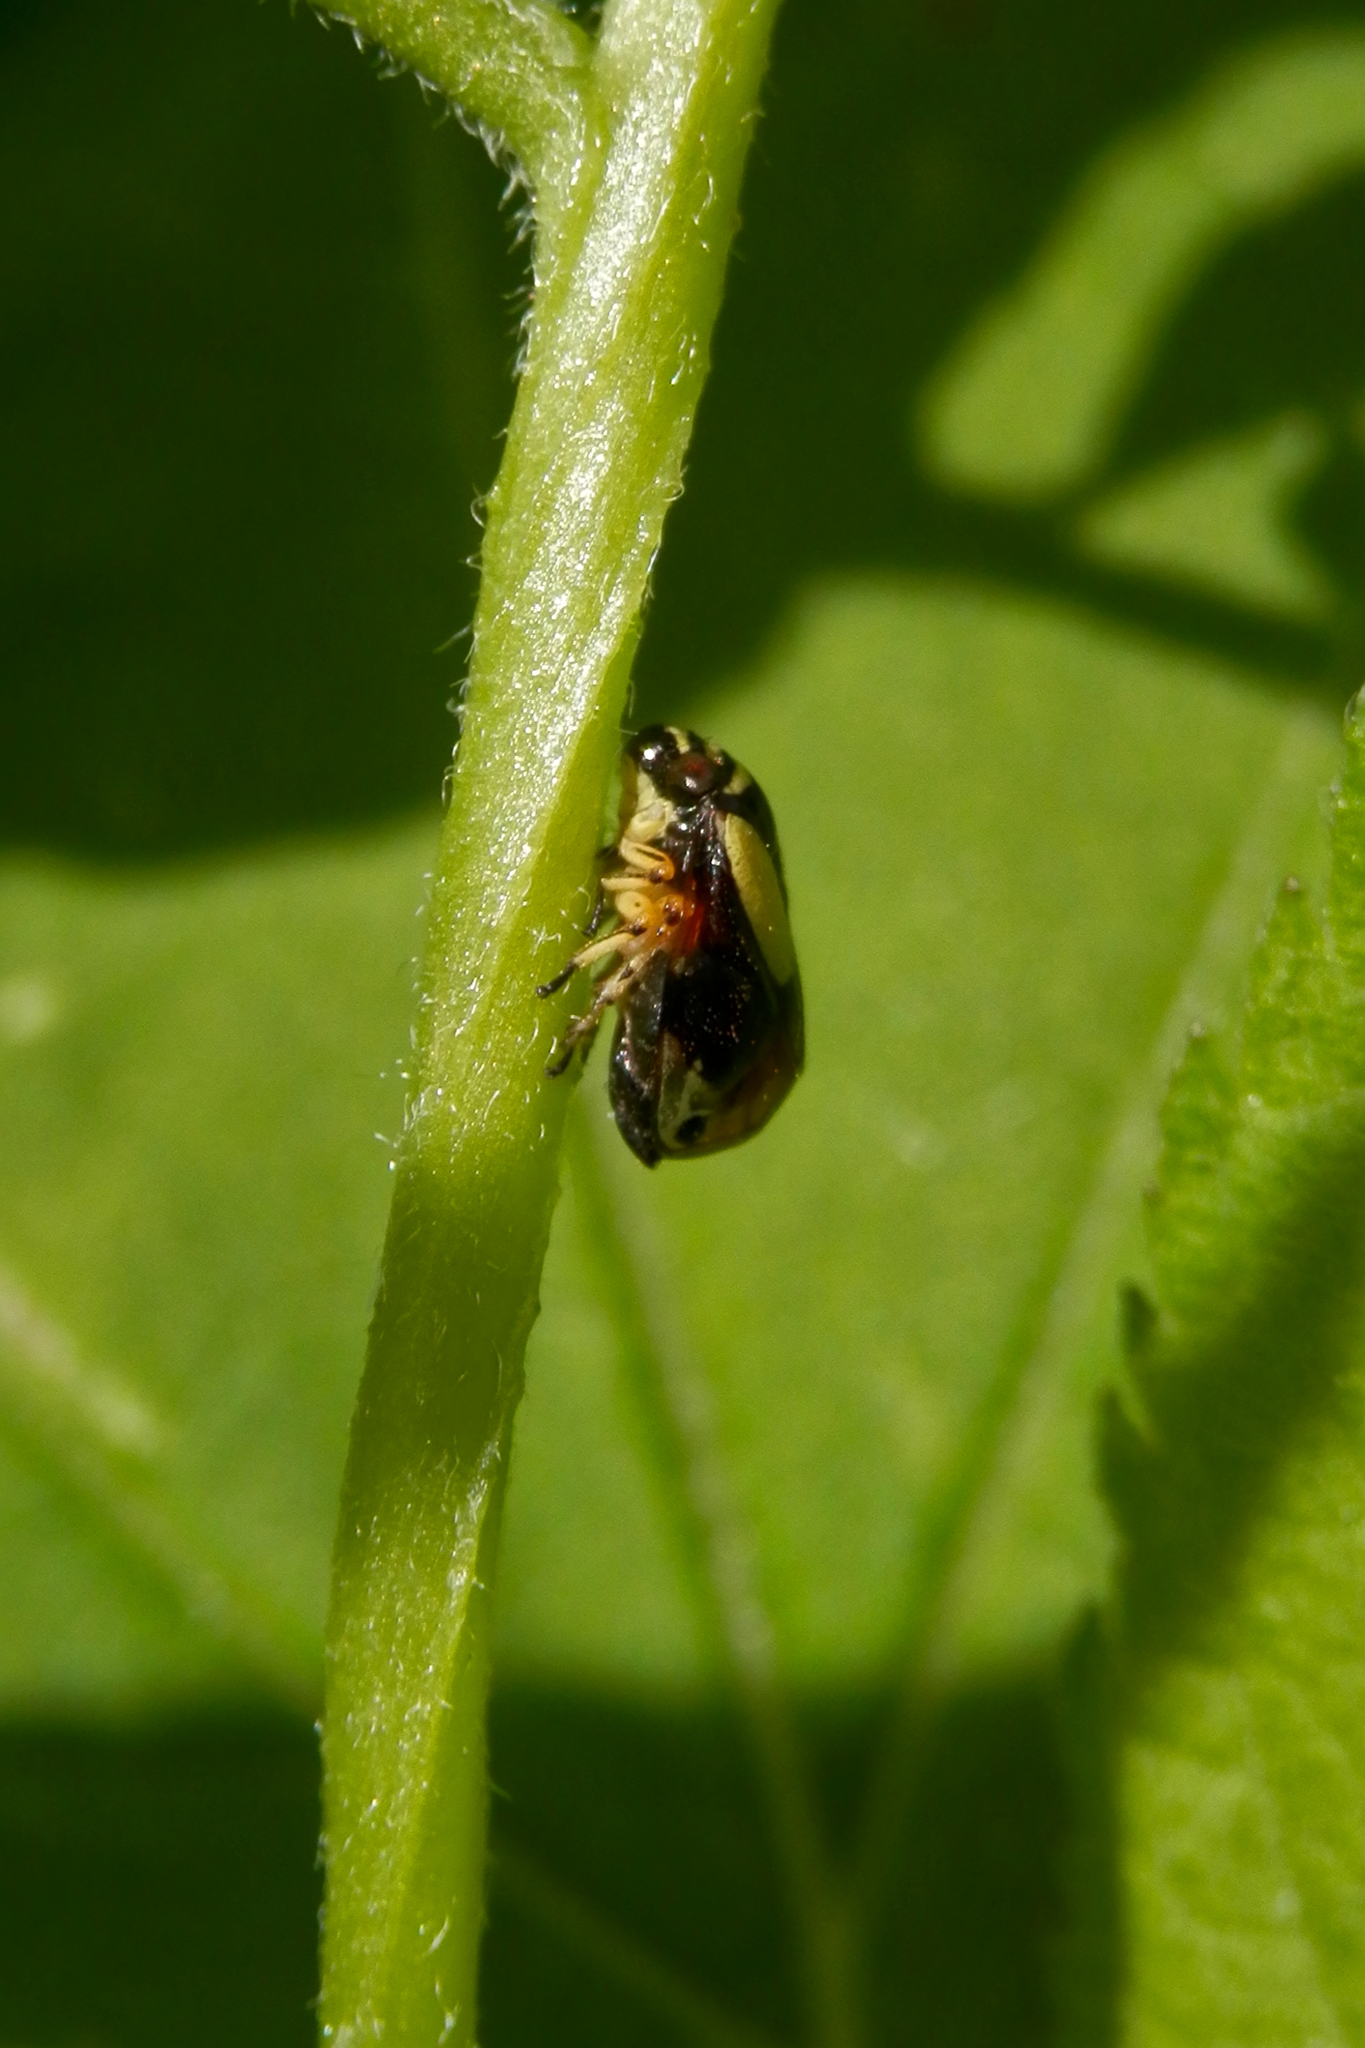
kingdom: Animalia
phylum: Arthropoda
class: Insecta
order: Hemiptera
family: Clastopteridae
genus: Clastoptera
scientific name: Clastoptera proteus
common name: Dogwood spittlebug
